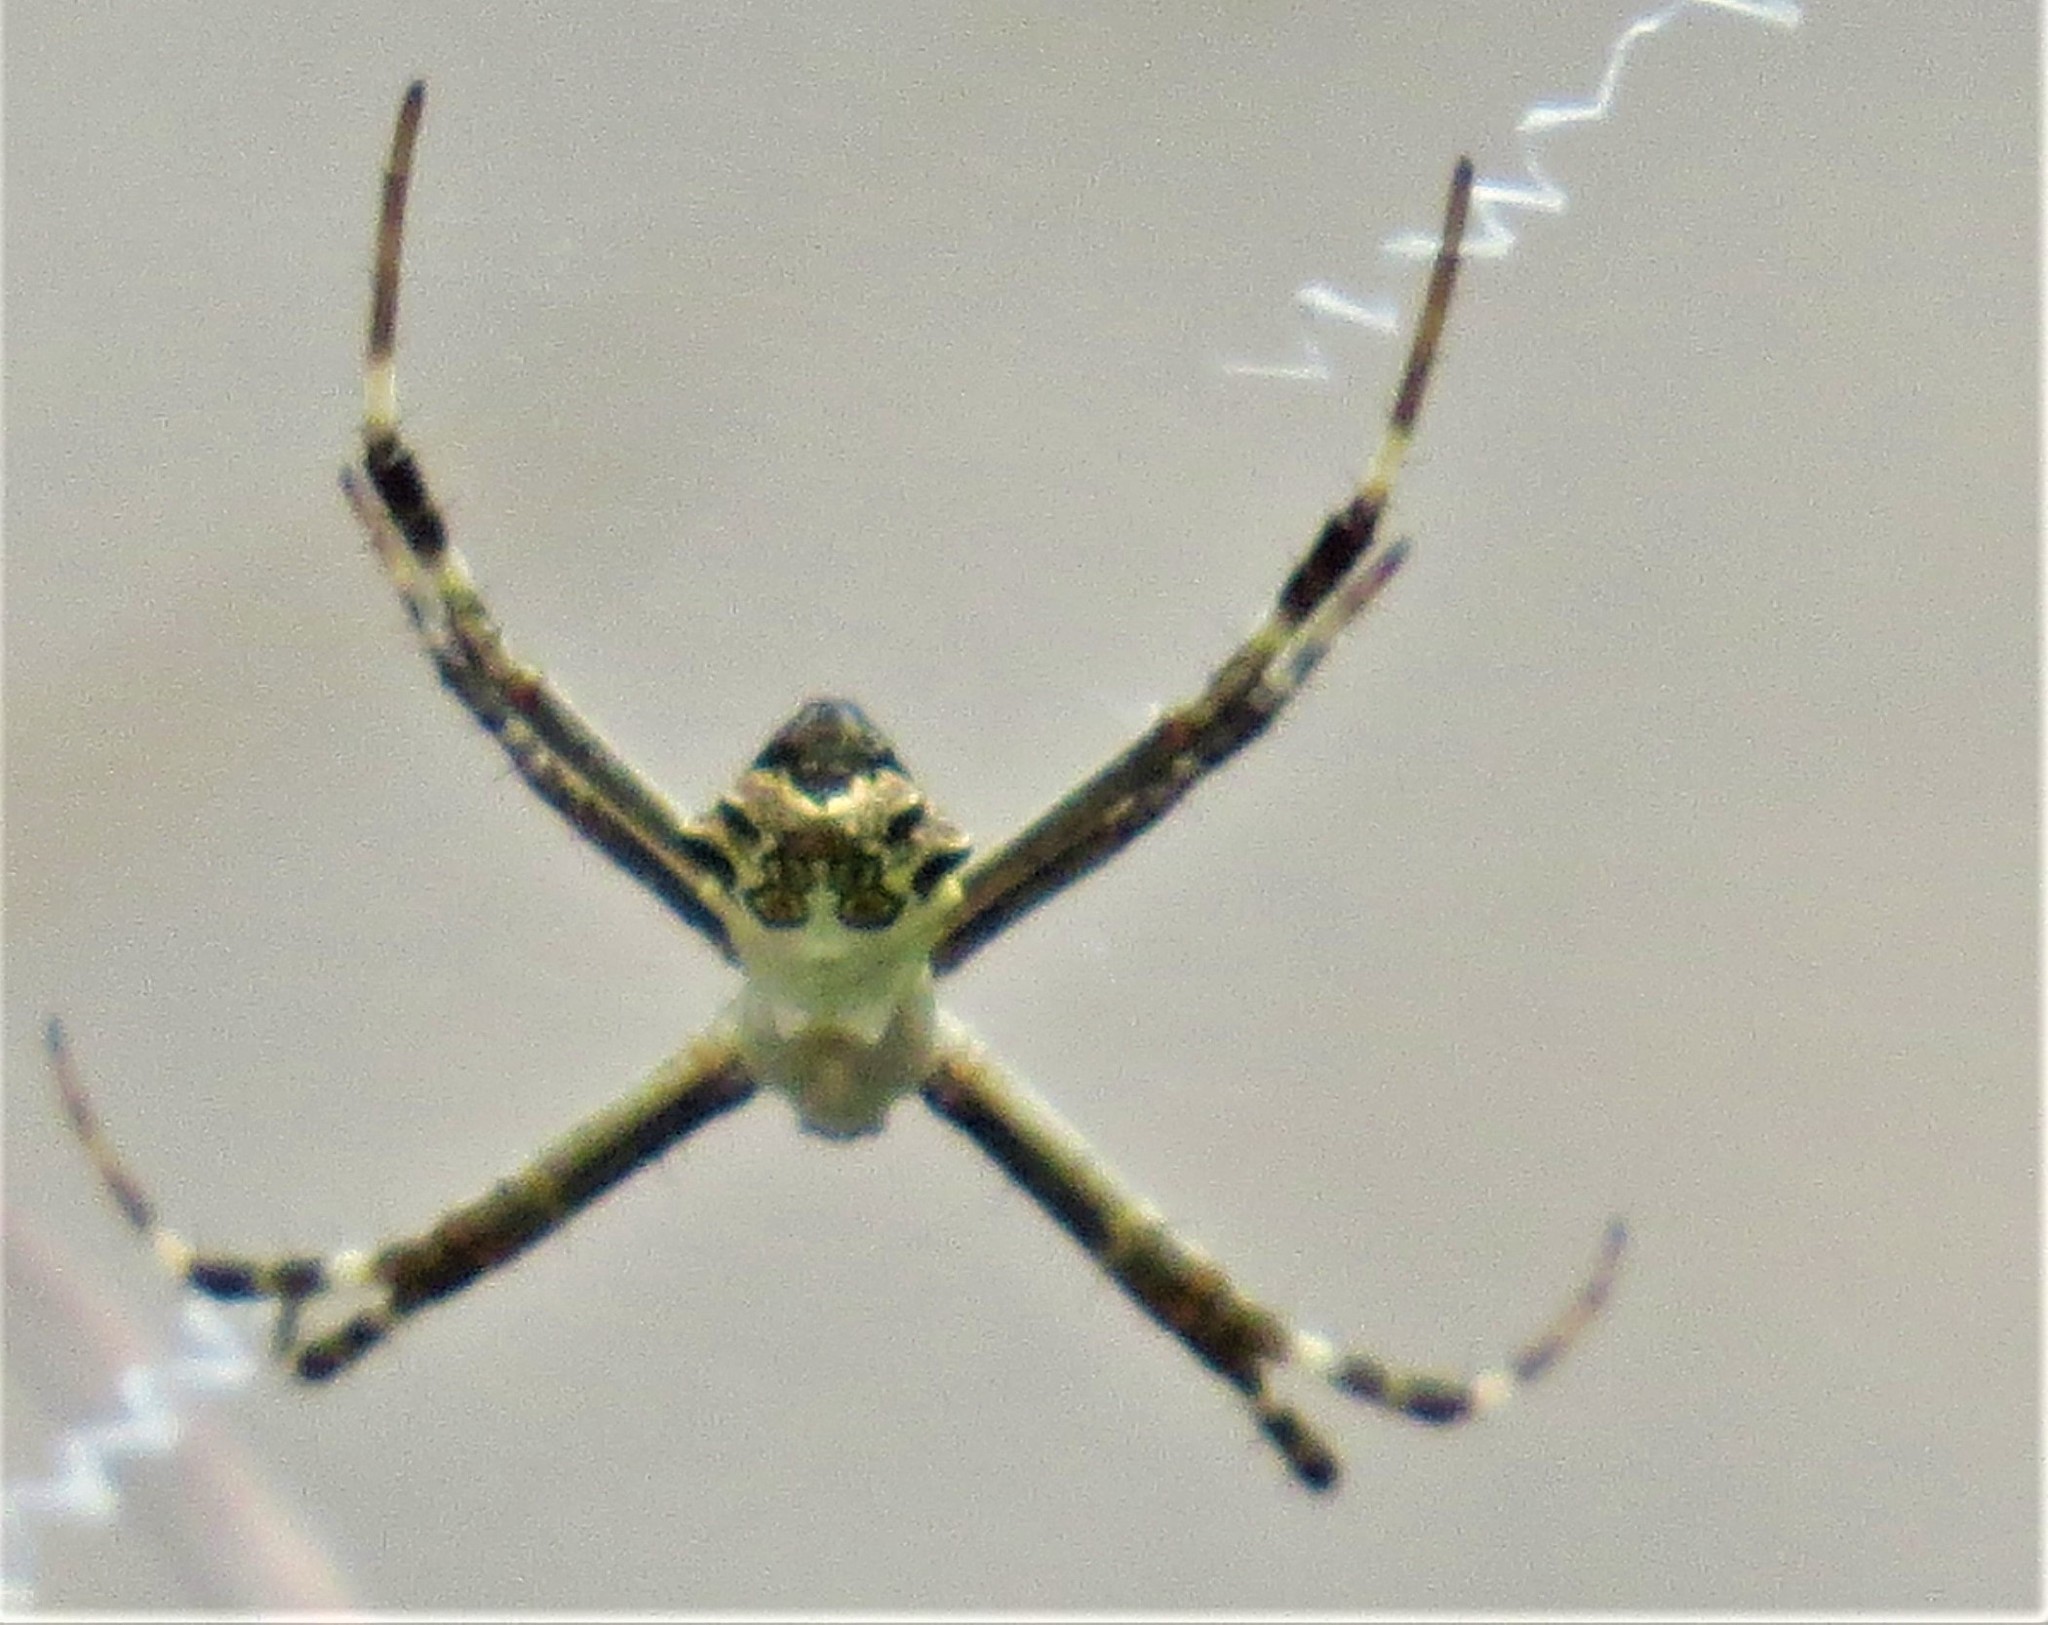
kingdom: Animalia
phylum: Arthropoda
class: Arachnida
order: Araneae
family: Araneidae
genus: Argiope
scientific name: Argiope argentata
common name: Orb weavers
